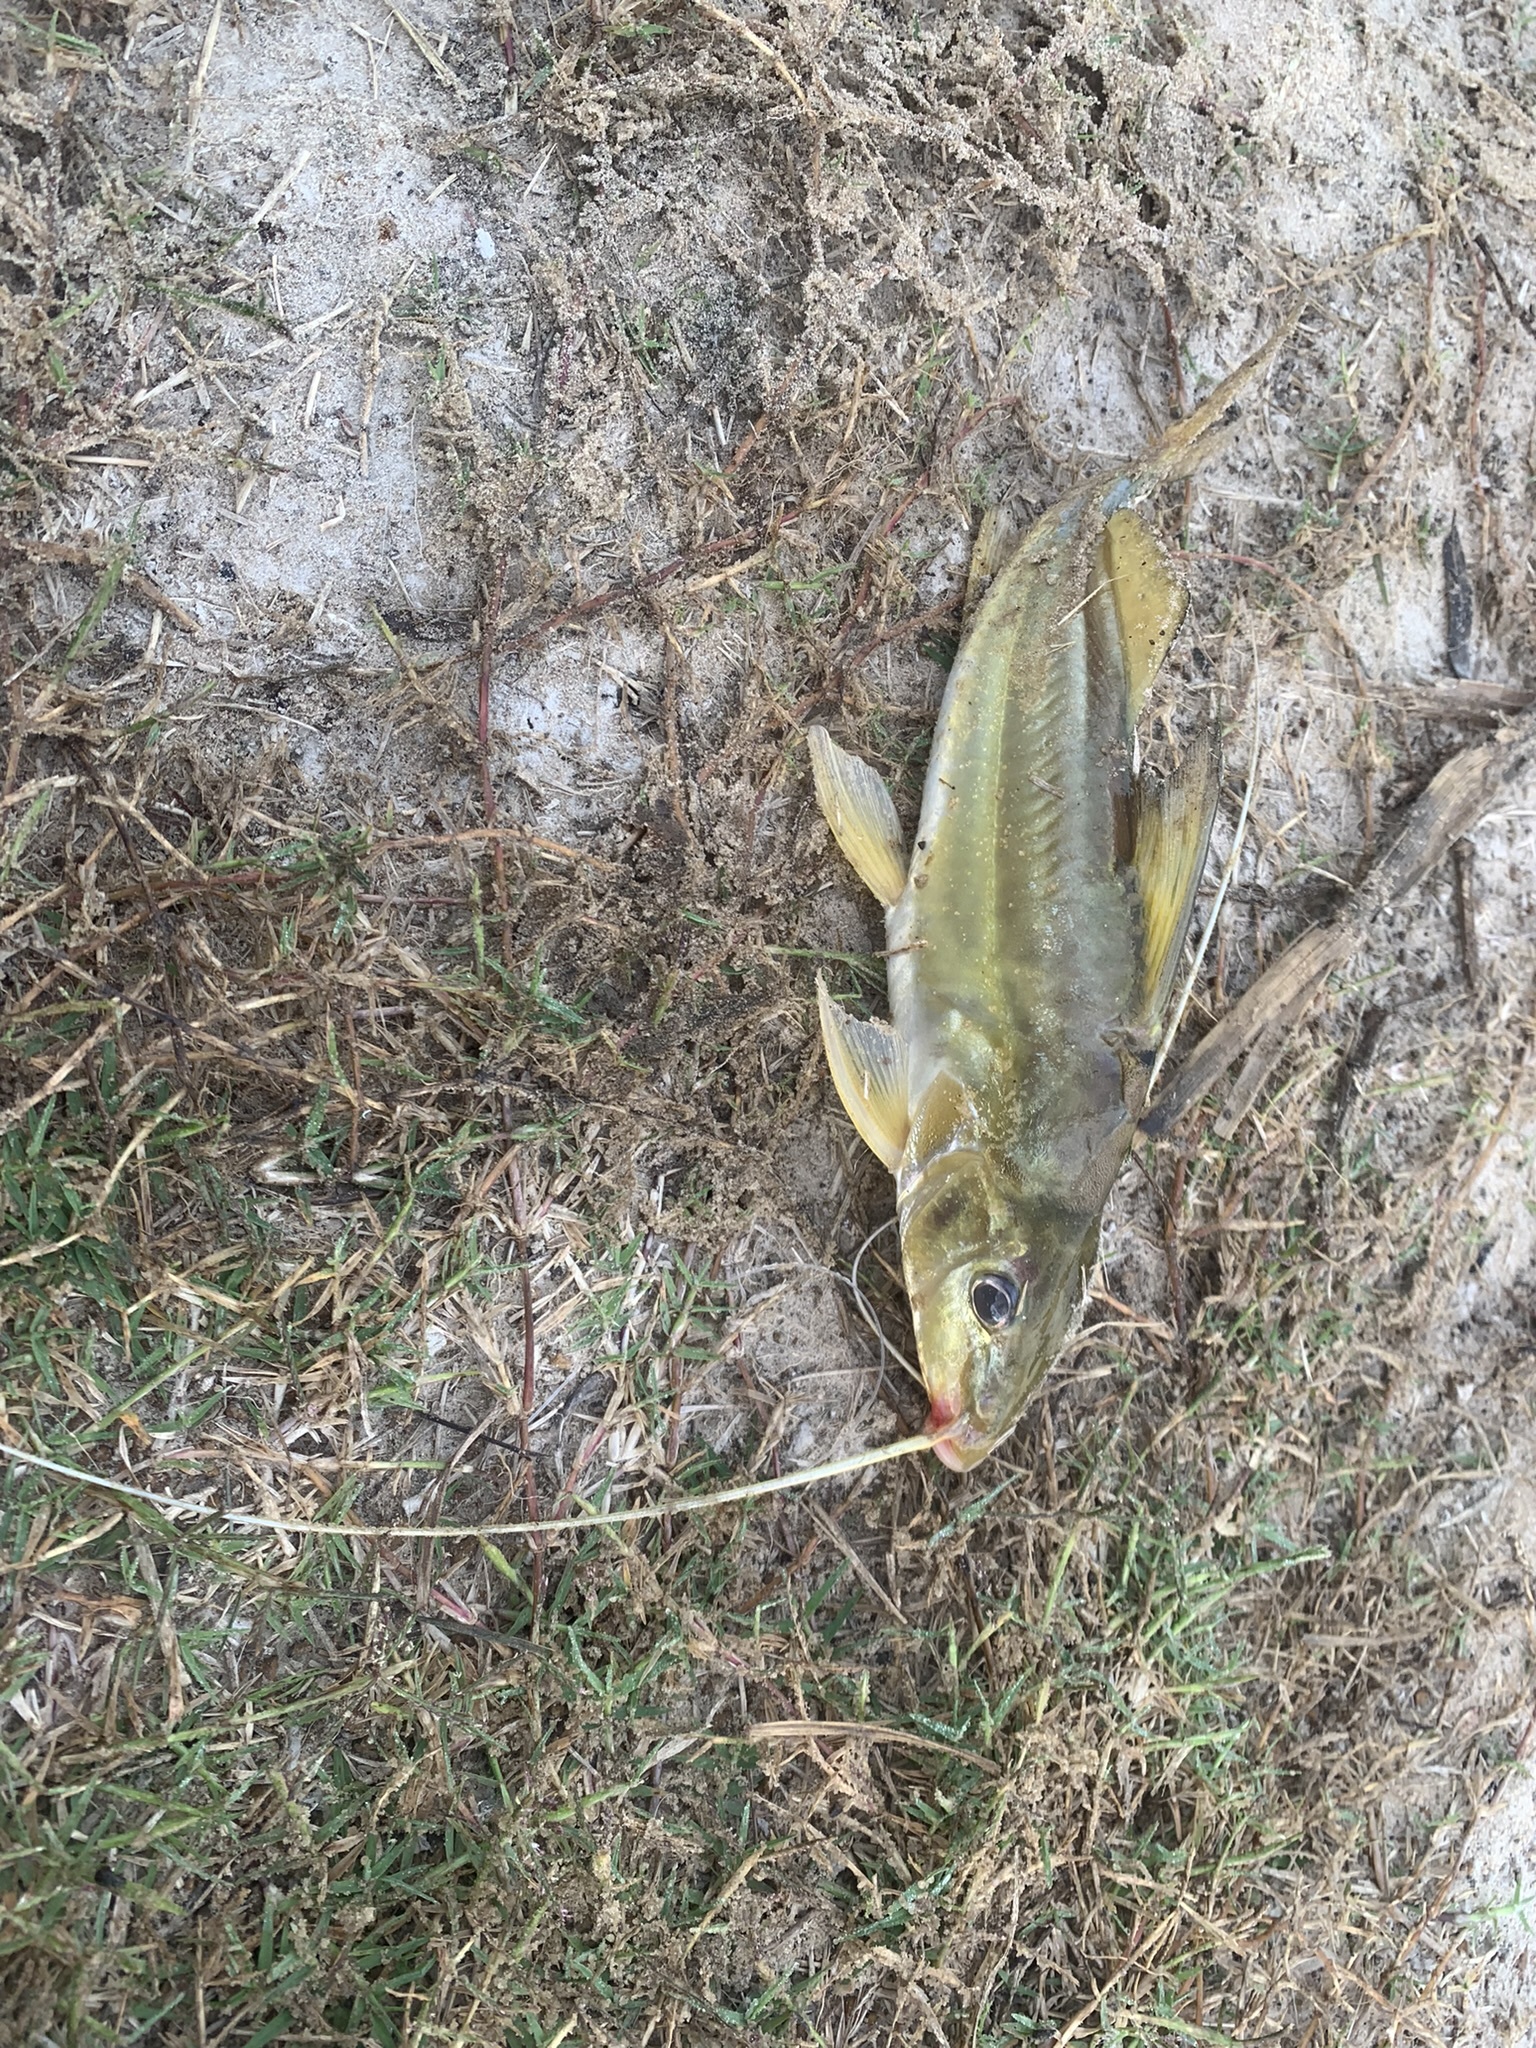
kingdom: Animalia
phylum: Chordata
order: Siluriformes
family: Pimelodidae
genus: Pimelodus
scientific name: Pimelodus maculatus
